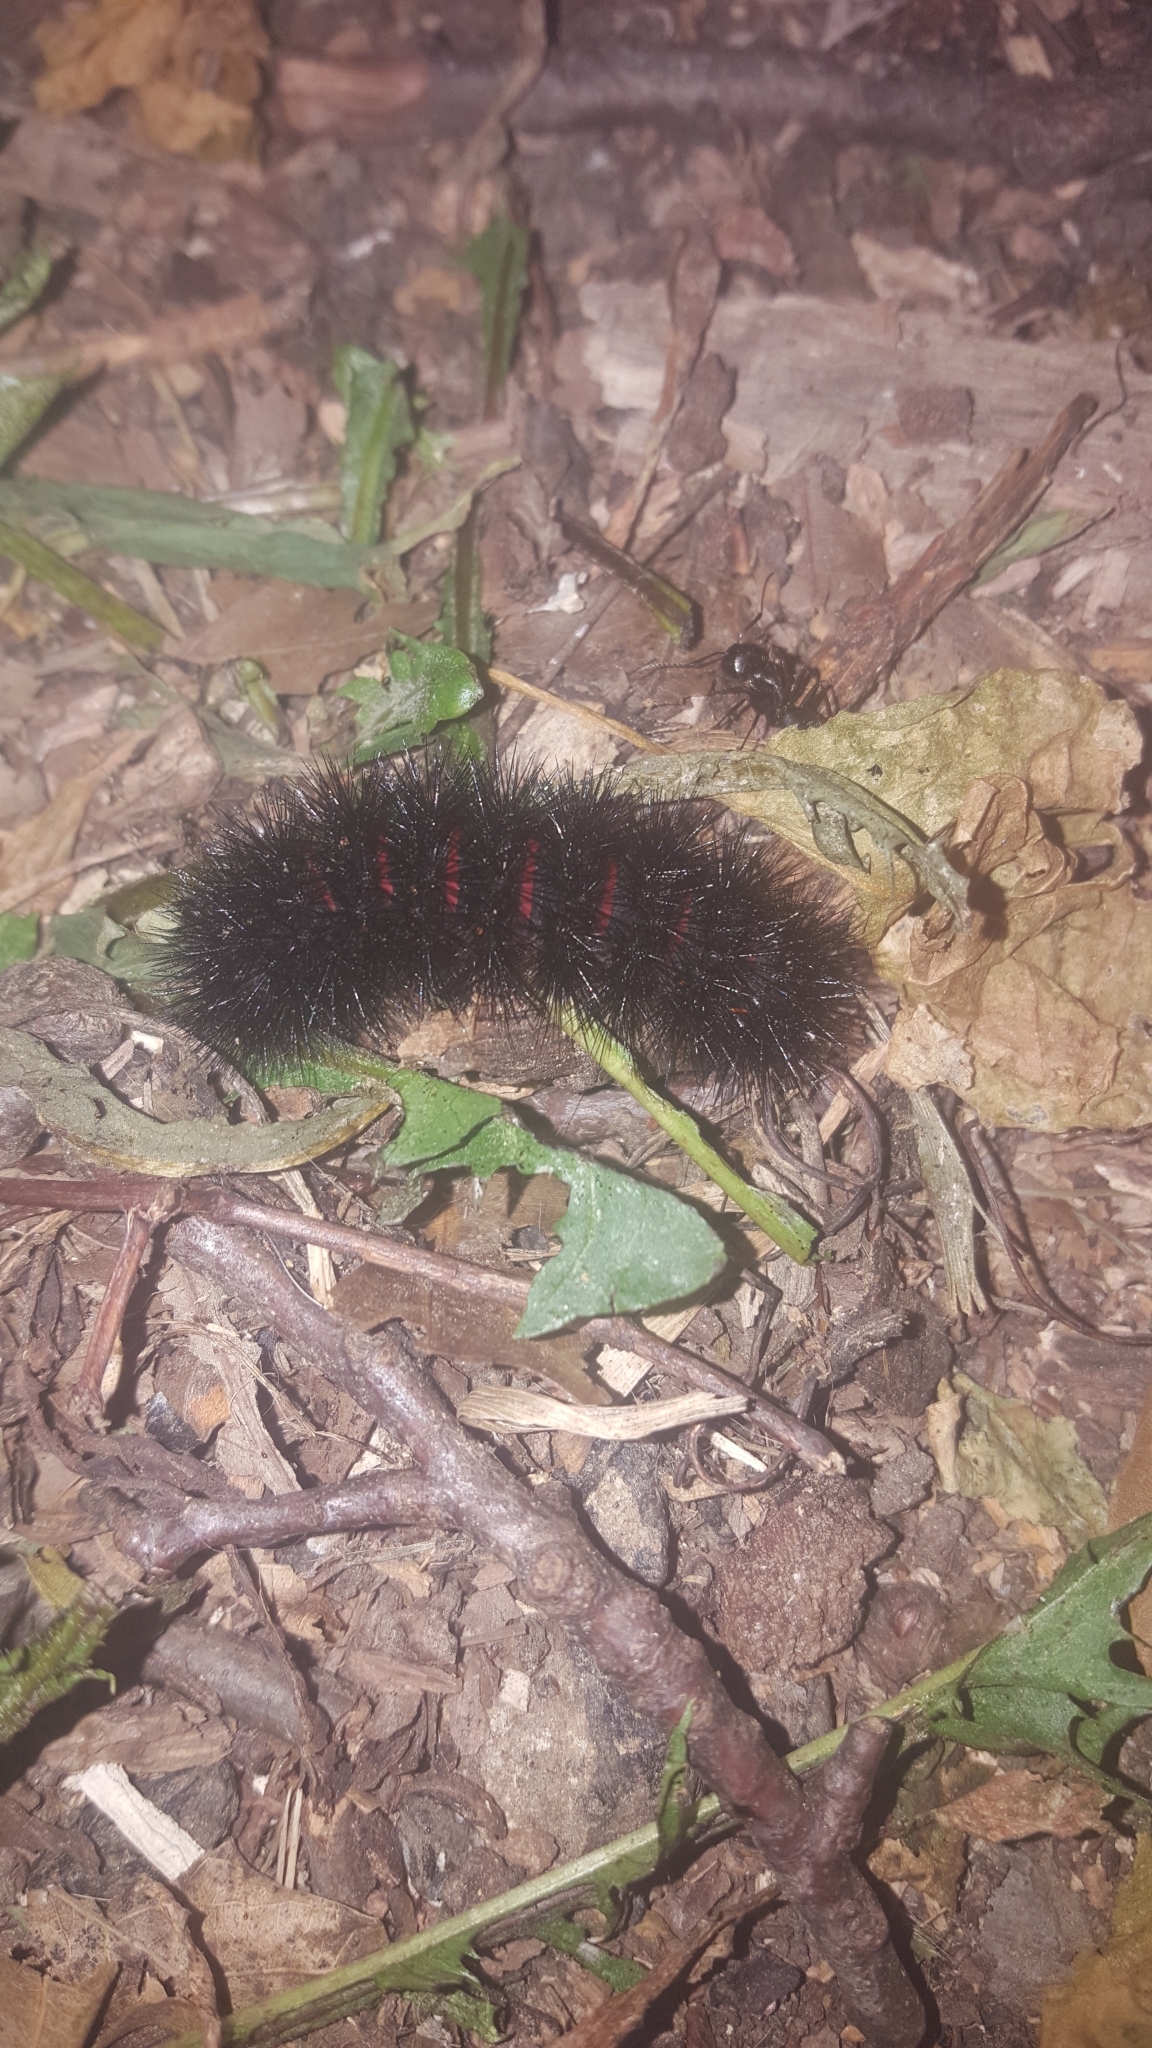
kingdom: Animalia
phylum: Arthropoda
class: Insecta
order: Lepidoptera
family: Erebidae
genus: Hypercompe
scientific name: Hypercompe scribonia
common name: Giant leopard moth
